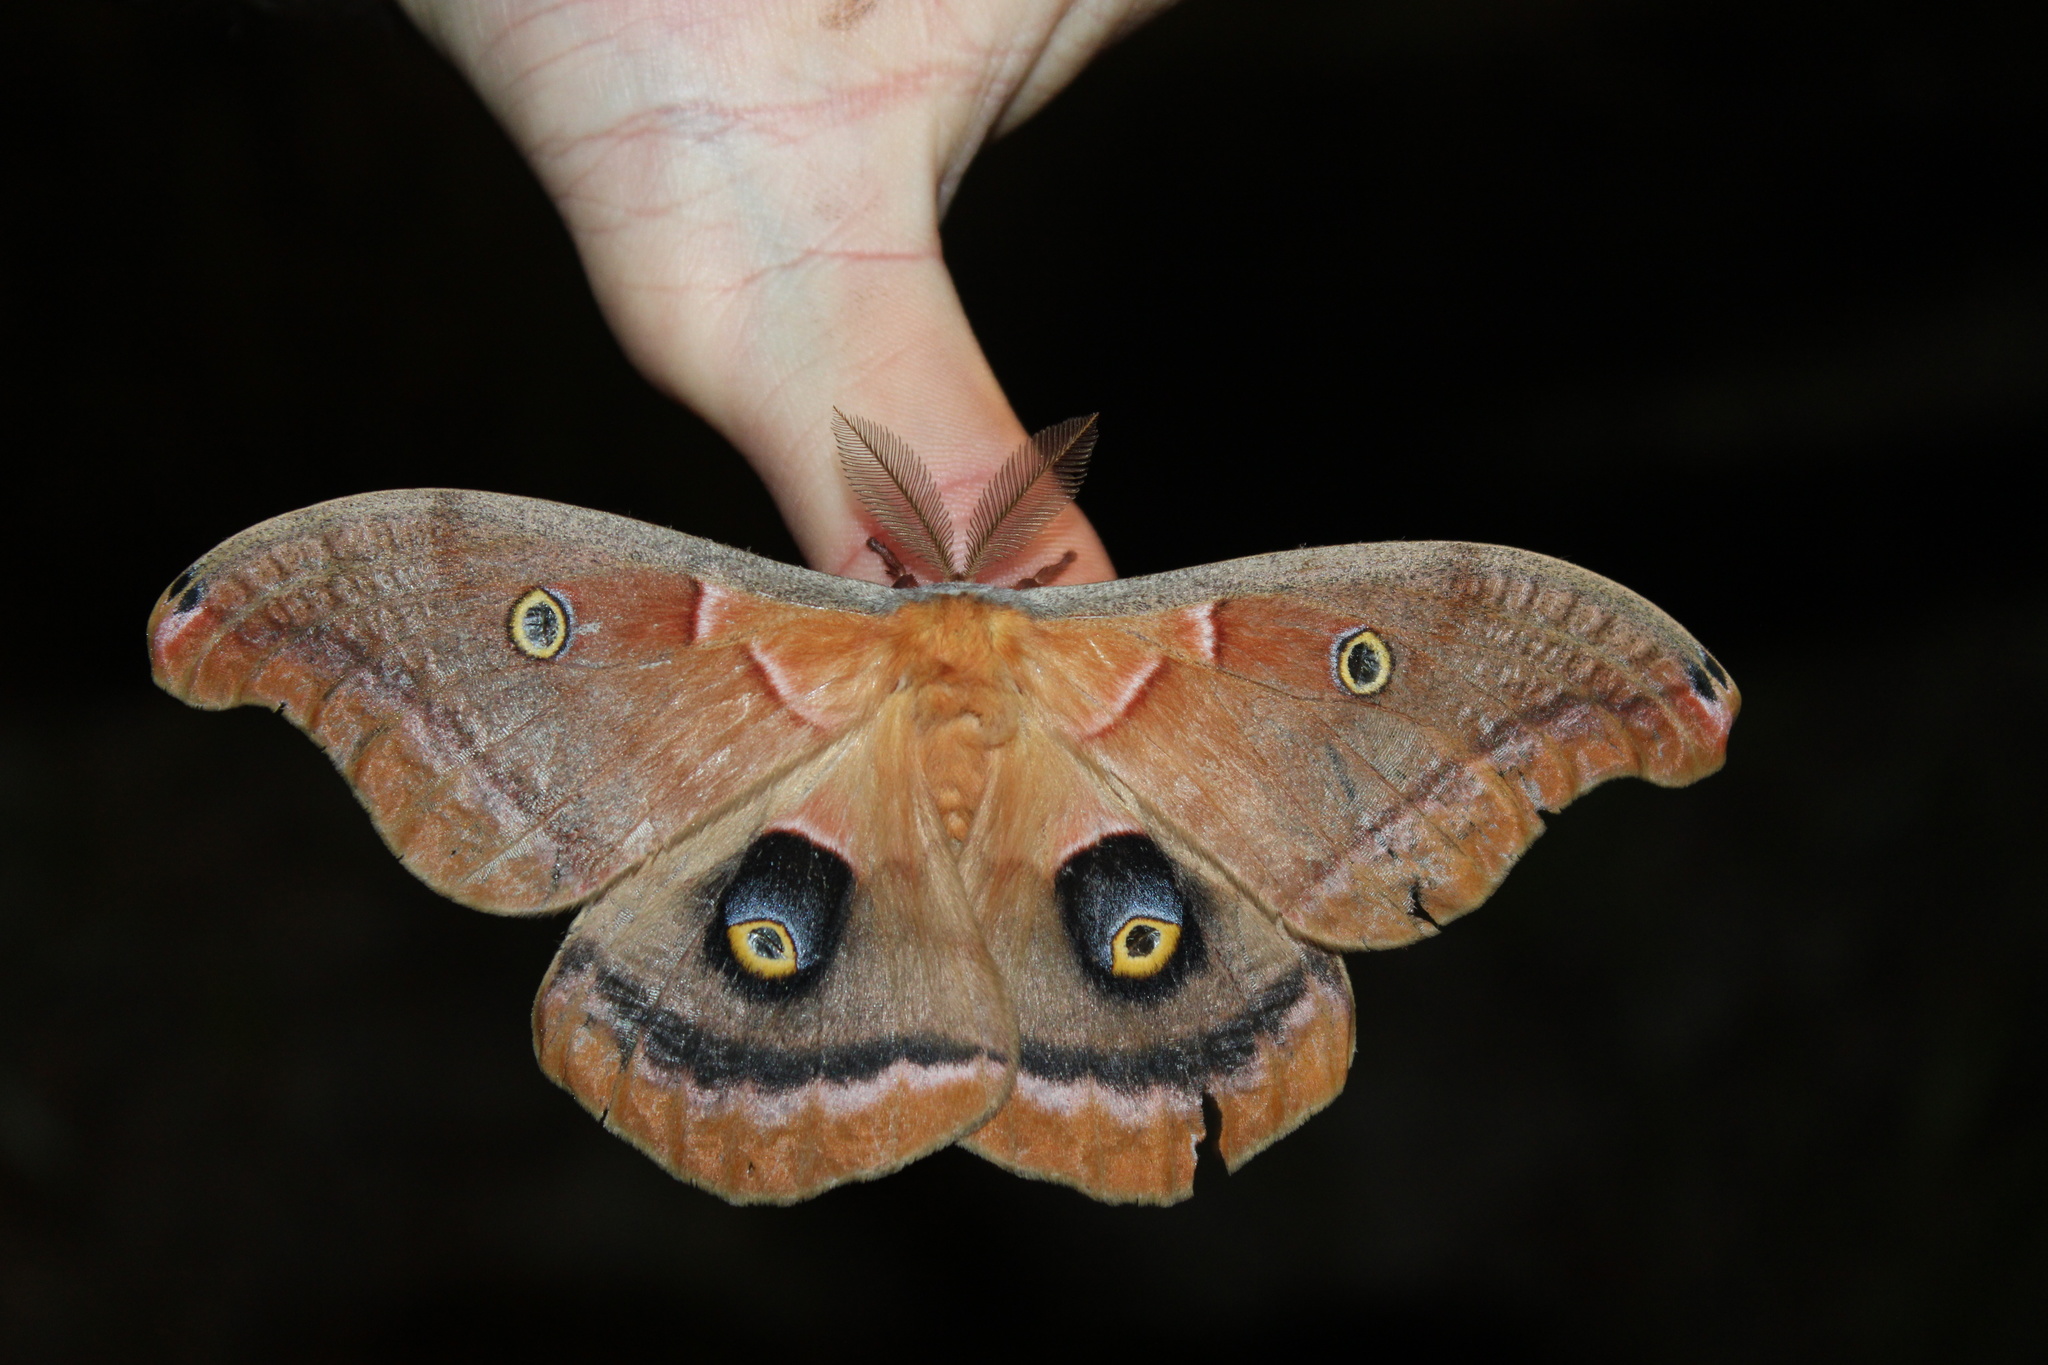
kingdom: Animalia
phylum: Arthropoda
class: Insecta
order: Lepidoptera
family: Saturniidae
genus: Antheraea
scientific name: Antheraea polyphemus
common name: Polyphemus moth
